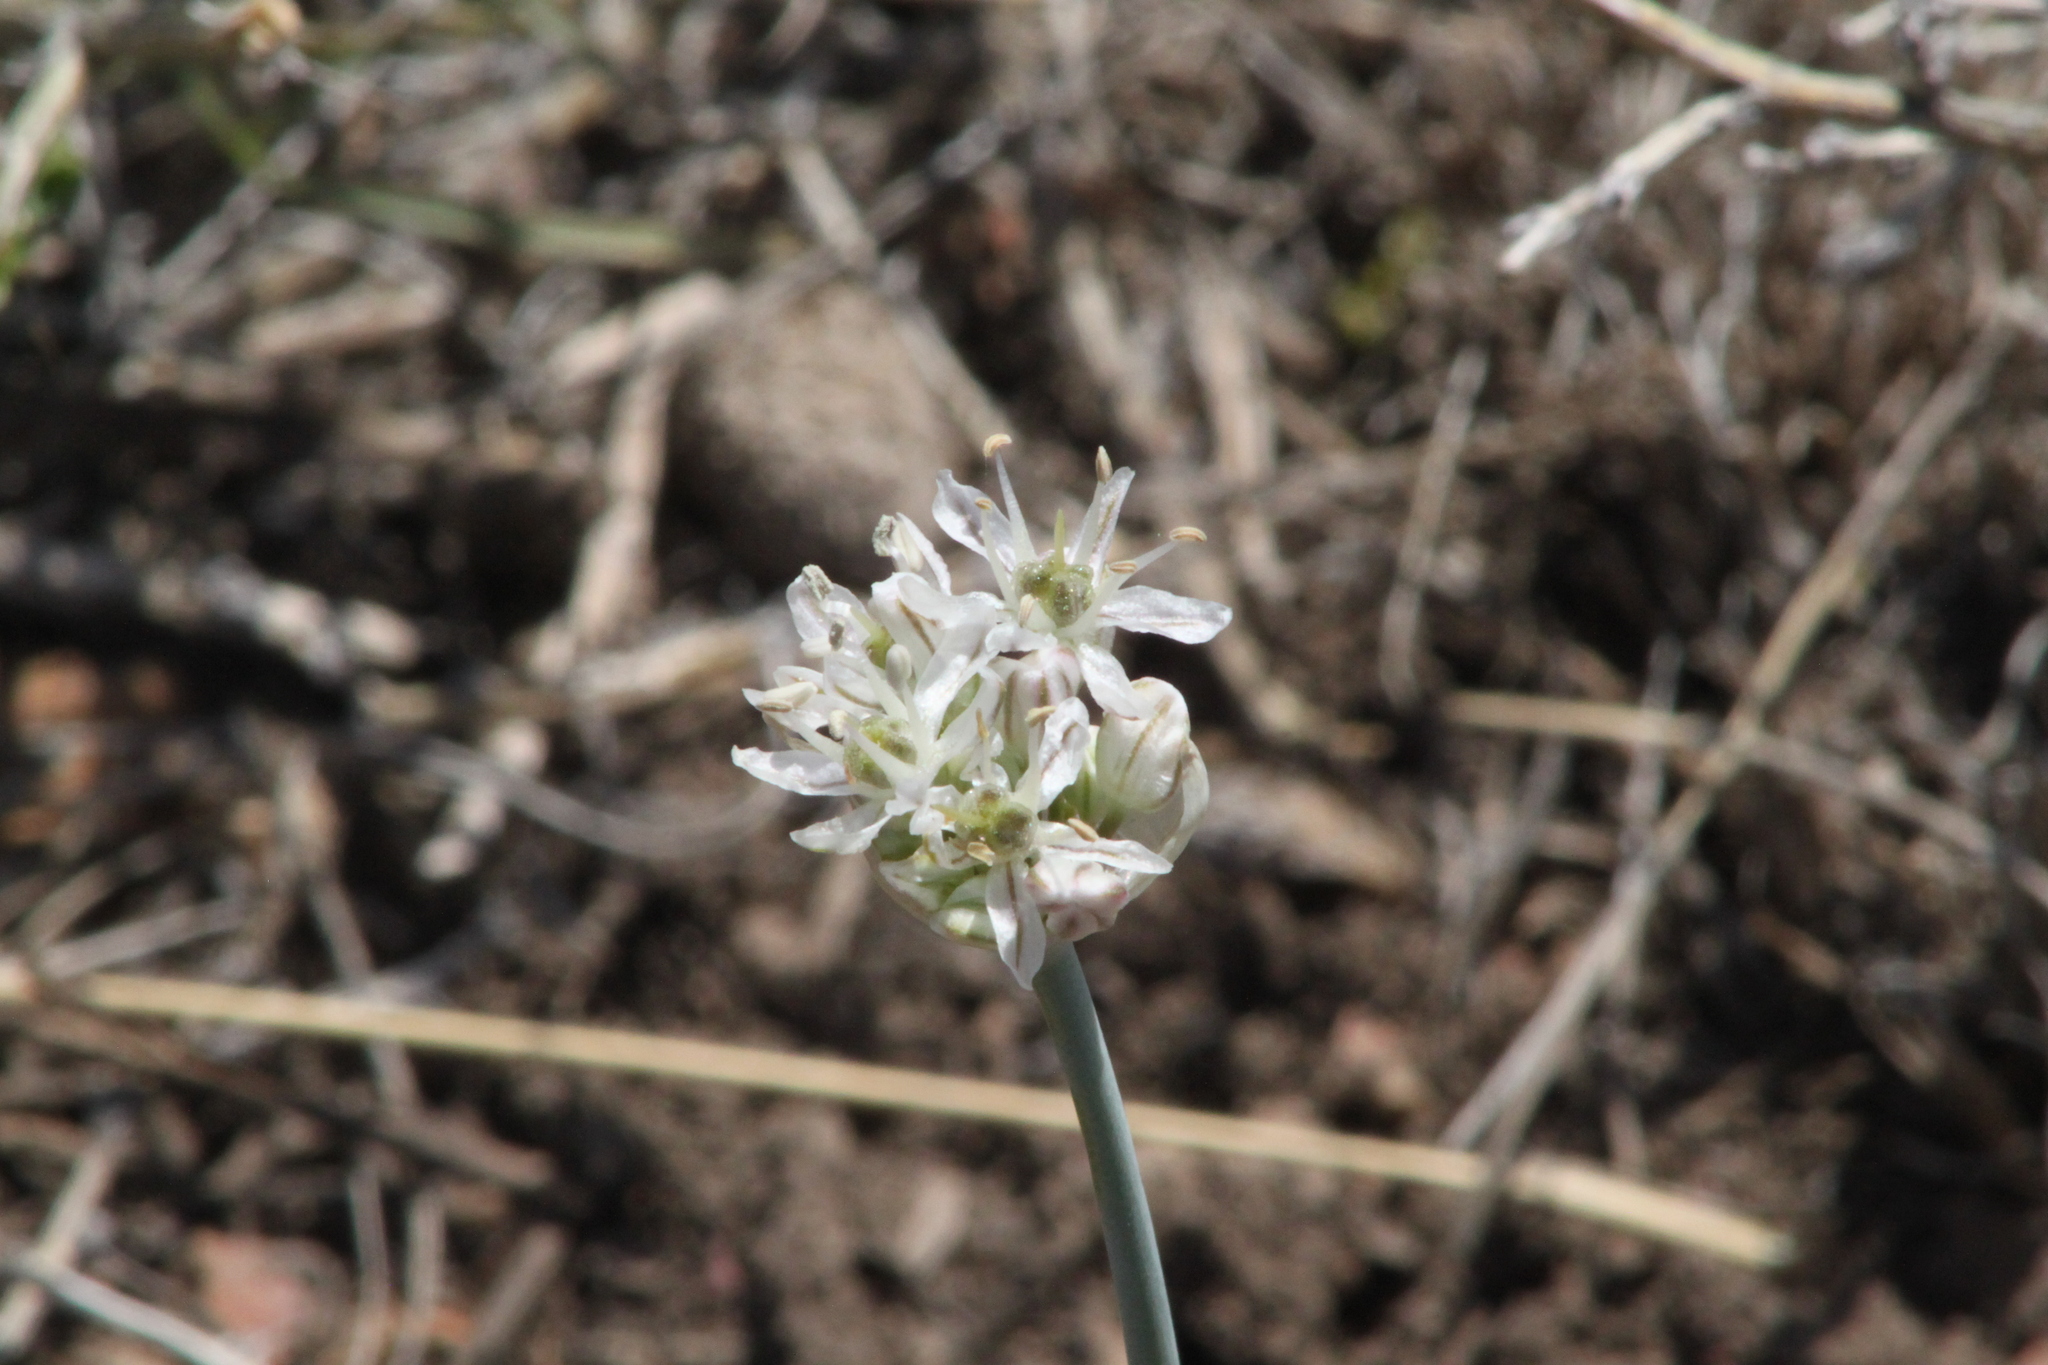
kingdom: Plantae
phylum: Tracheophyta
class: Liliopsida
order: Asparagales
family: Amaryllidaceae
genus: Allium
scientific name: Allium tulipifolium
